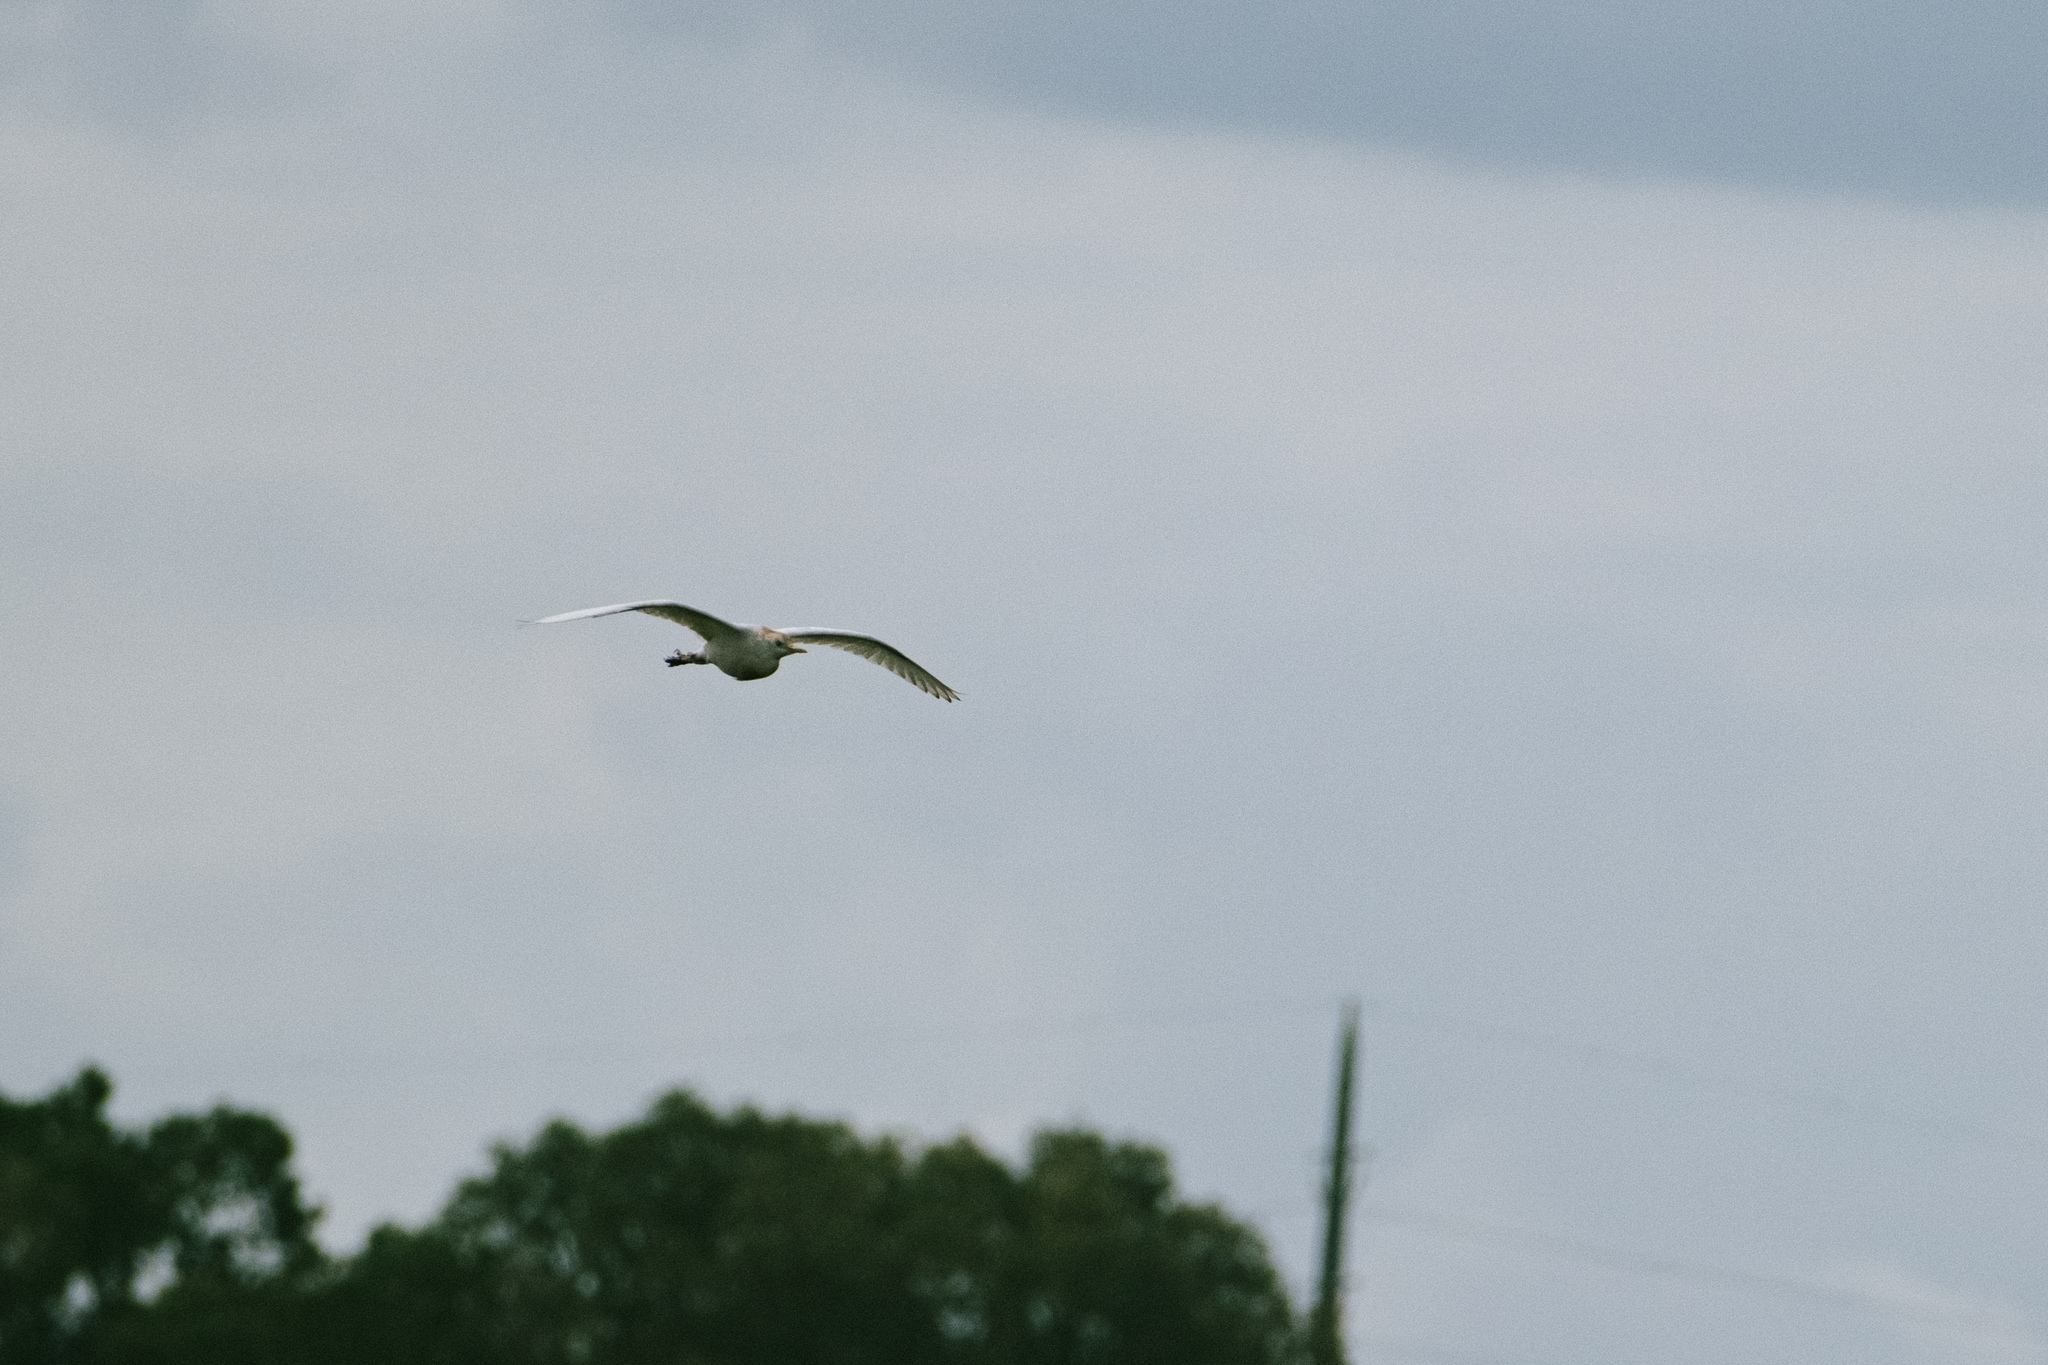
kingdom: Animalia
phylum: Chordata
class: Aves
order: Pelecaniformes
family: Ardeidae
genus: Bubulcus
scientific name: Bubulcus ibis
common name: Cattle egret
